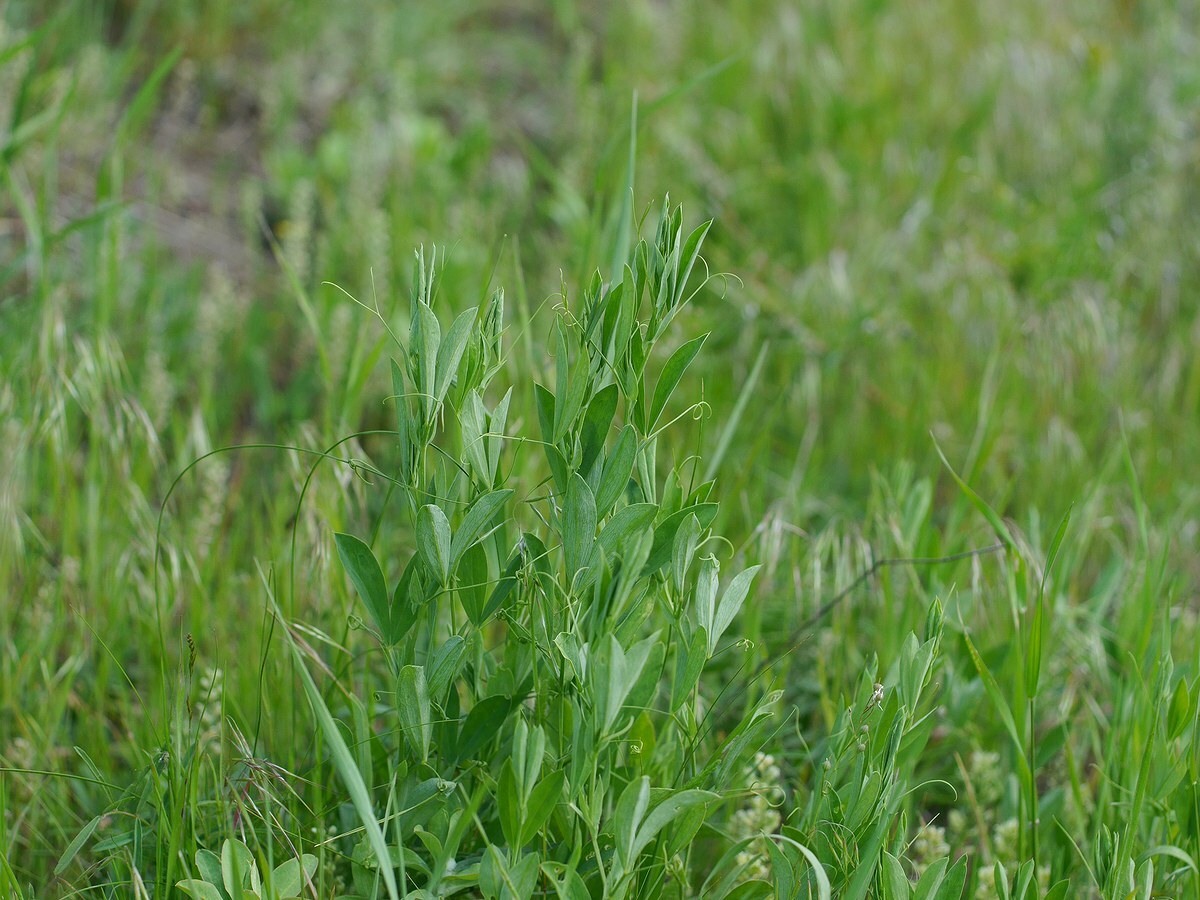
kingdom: Plantae
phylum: Tracheophyta
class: Magnoliopsida
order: Fabales
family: Fabaceae
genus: Lathyrus
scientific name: Lathyrus tuberosus
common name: Tuberous pea
